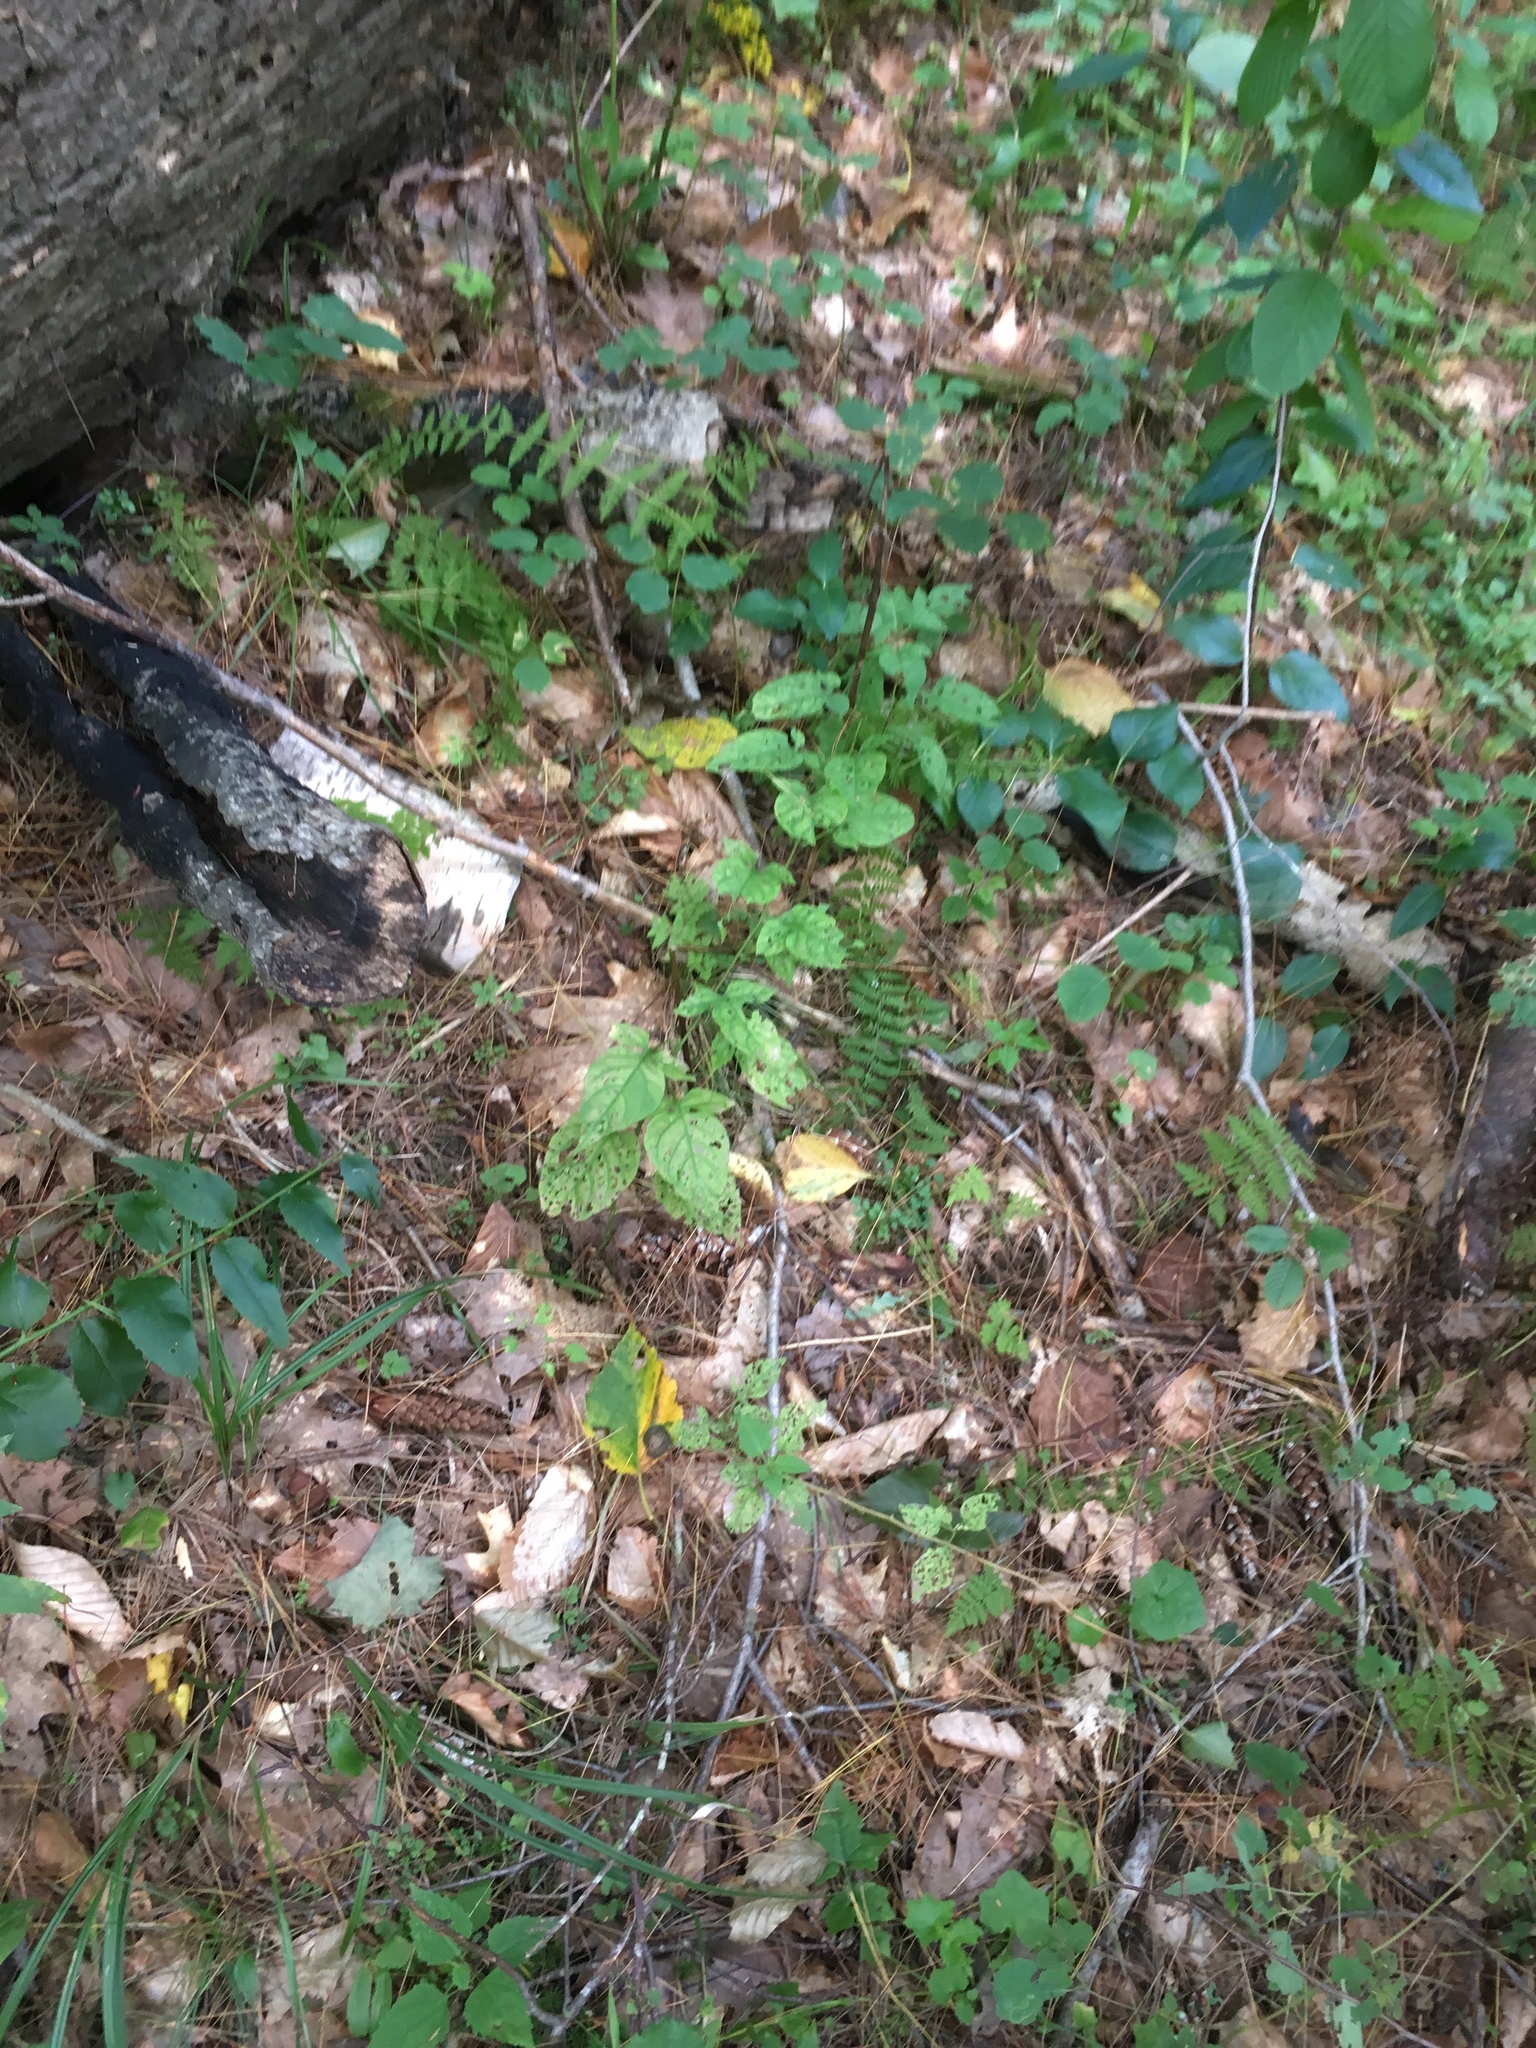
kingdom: Plantae
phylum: Tracheophyta
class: Magnoliopsida
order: Solanales
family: Solanaceae
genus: Solanum
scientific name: Solanum dulcamara
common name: Climbing nightshade
